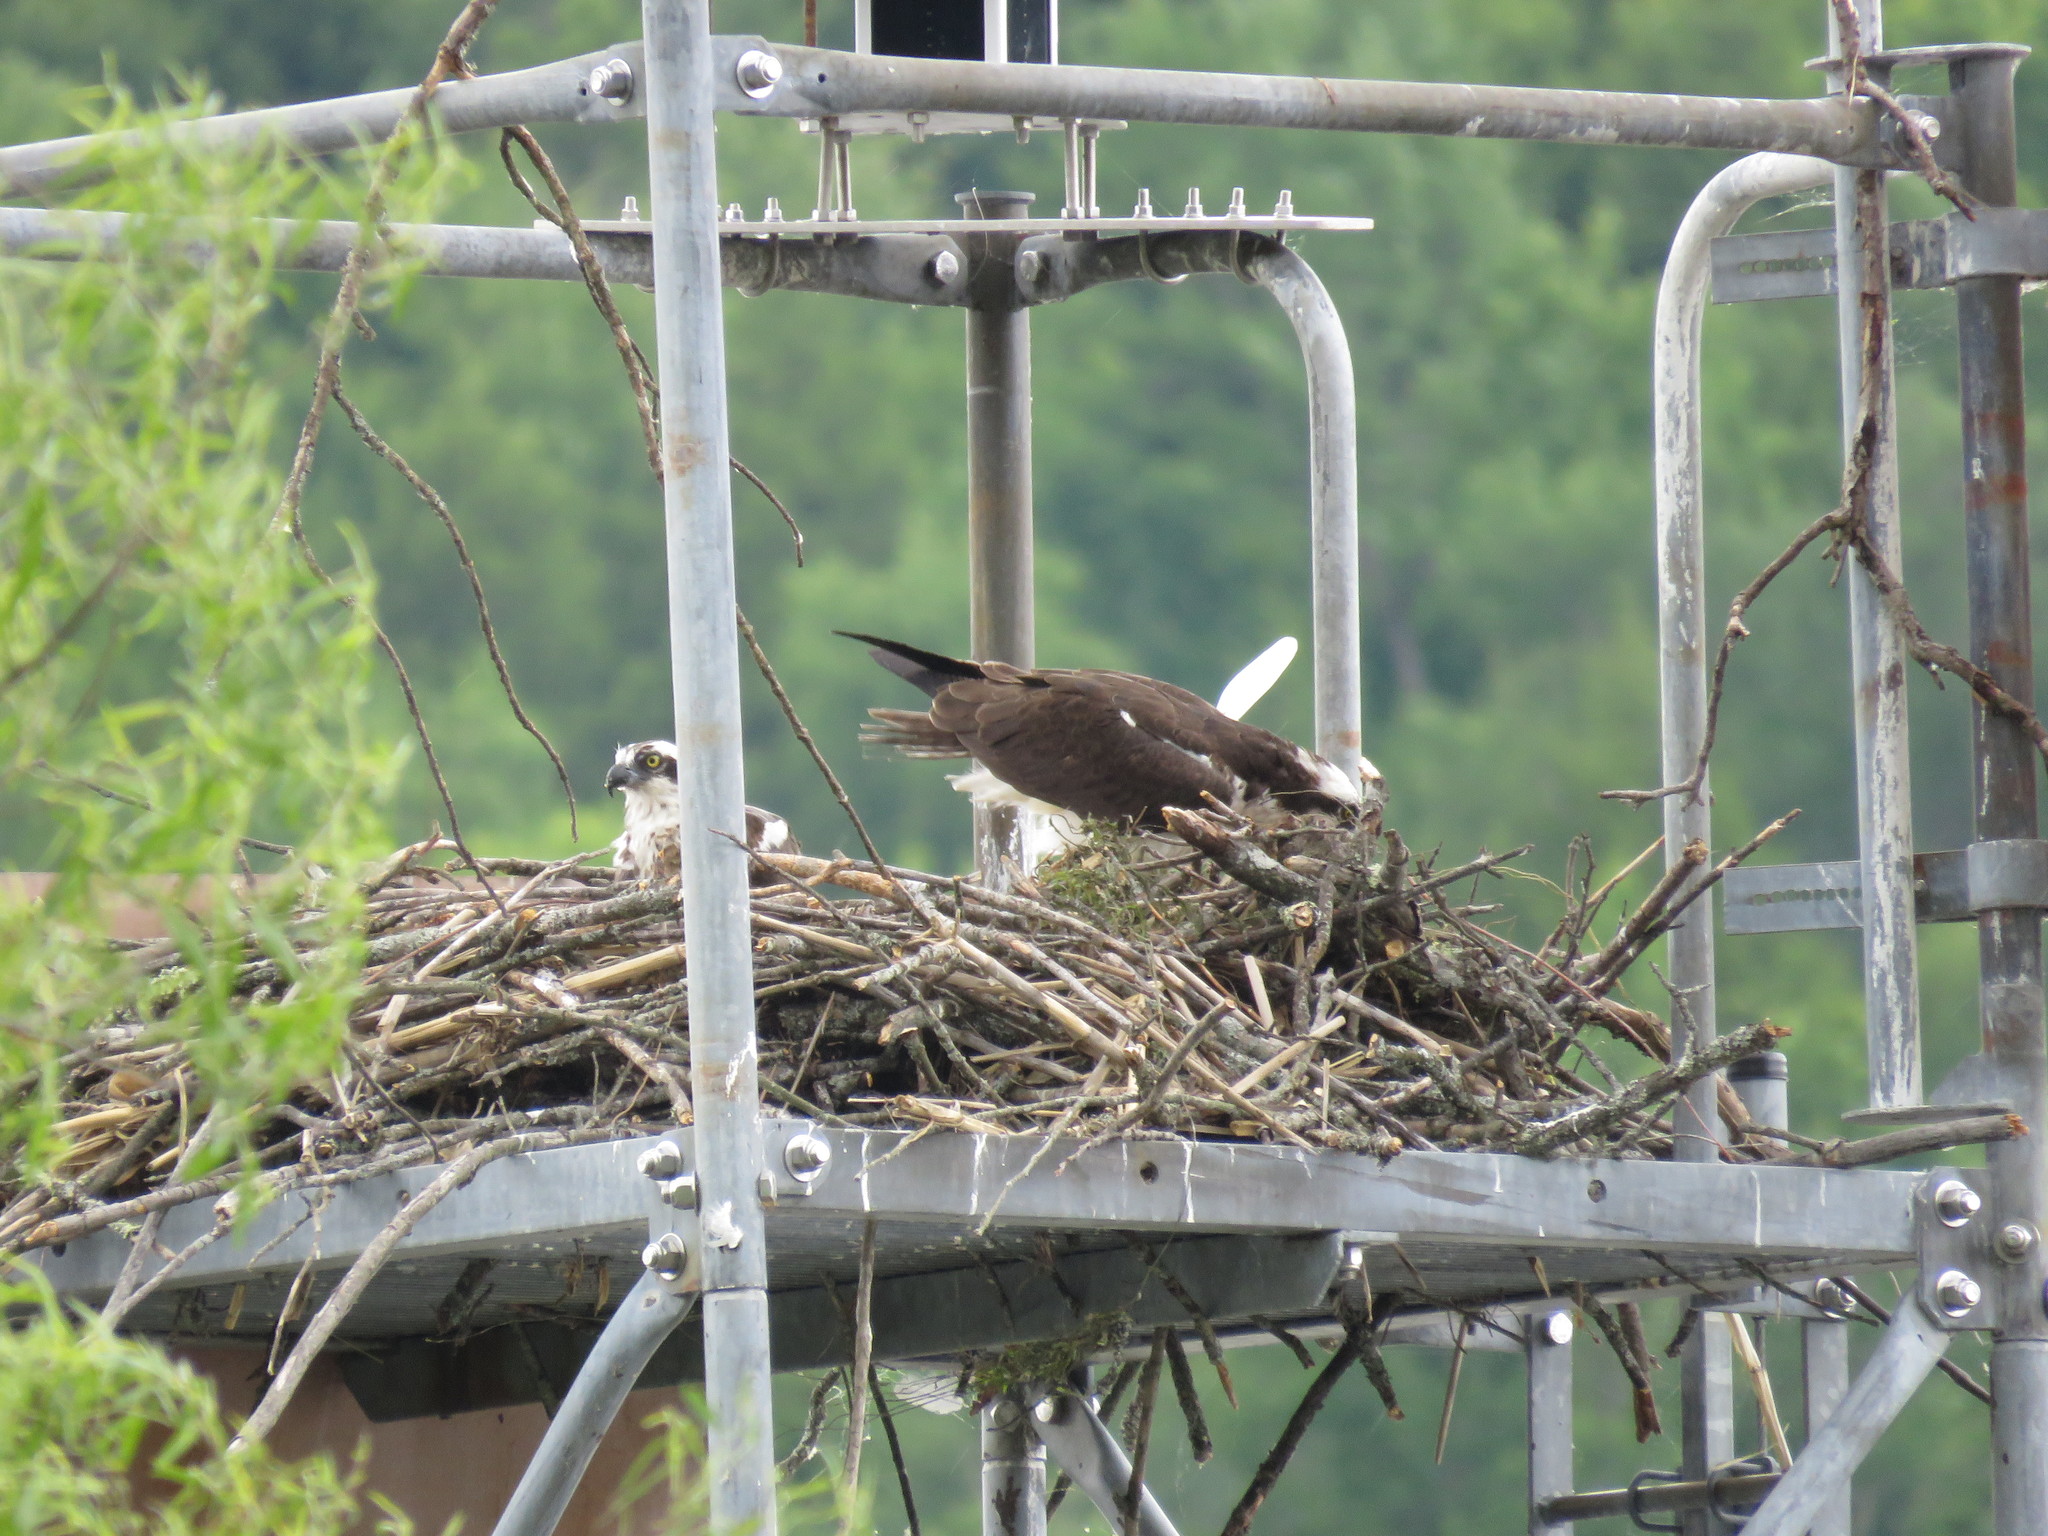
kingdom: Animalia
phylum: Chordata
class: Aves
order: Accipitriformes
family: Pandionidae
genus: Pandion
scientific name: Pandion haliaetus
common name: Osprey
